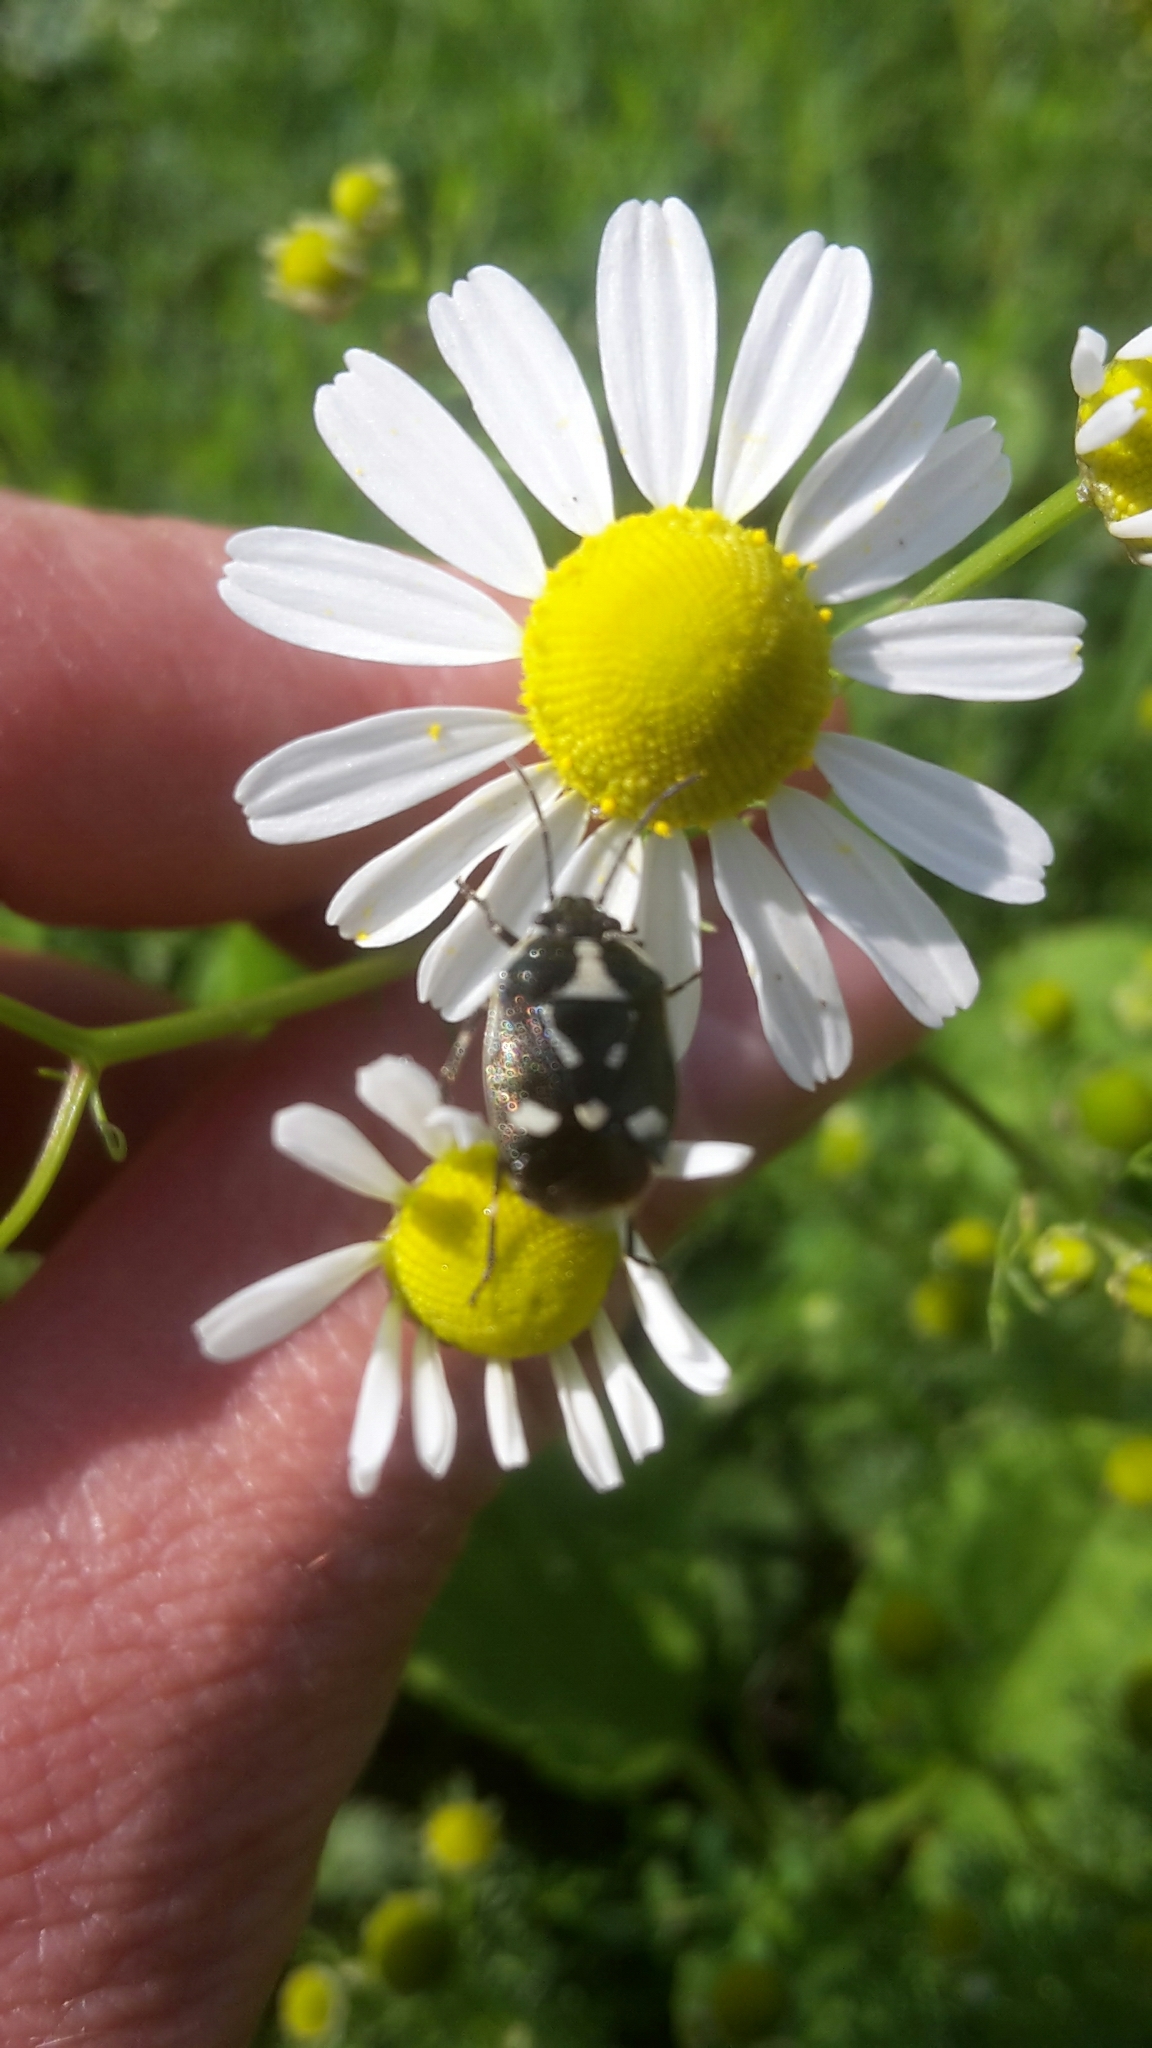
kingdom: Animalia
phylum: Arthropoda
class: Insecta
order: Hemiptera
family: Pentatomidae
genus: Eurydema
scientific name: Eurydema oleracea
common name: Cabbage bug
